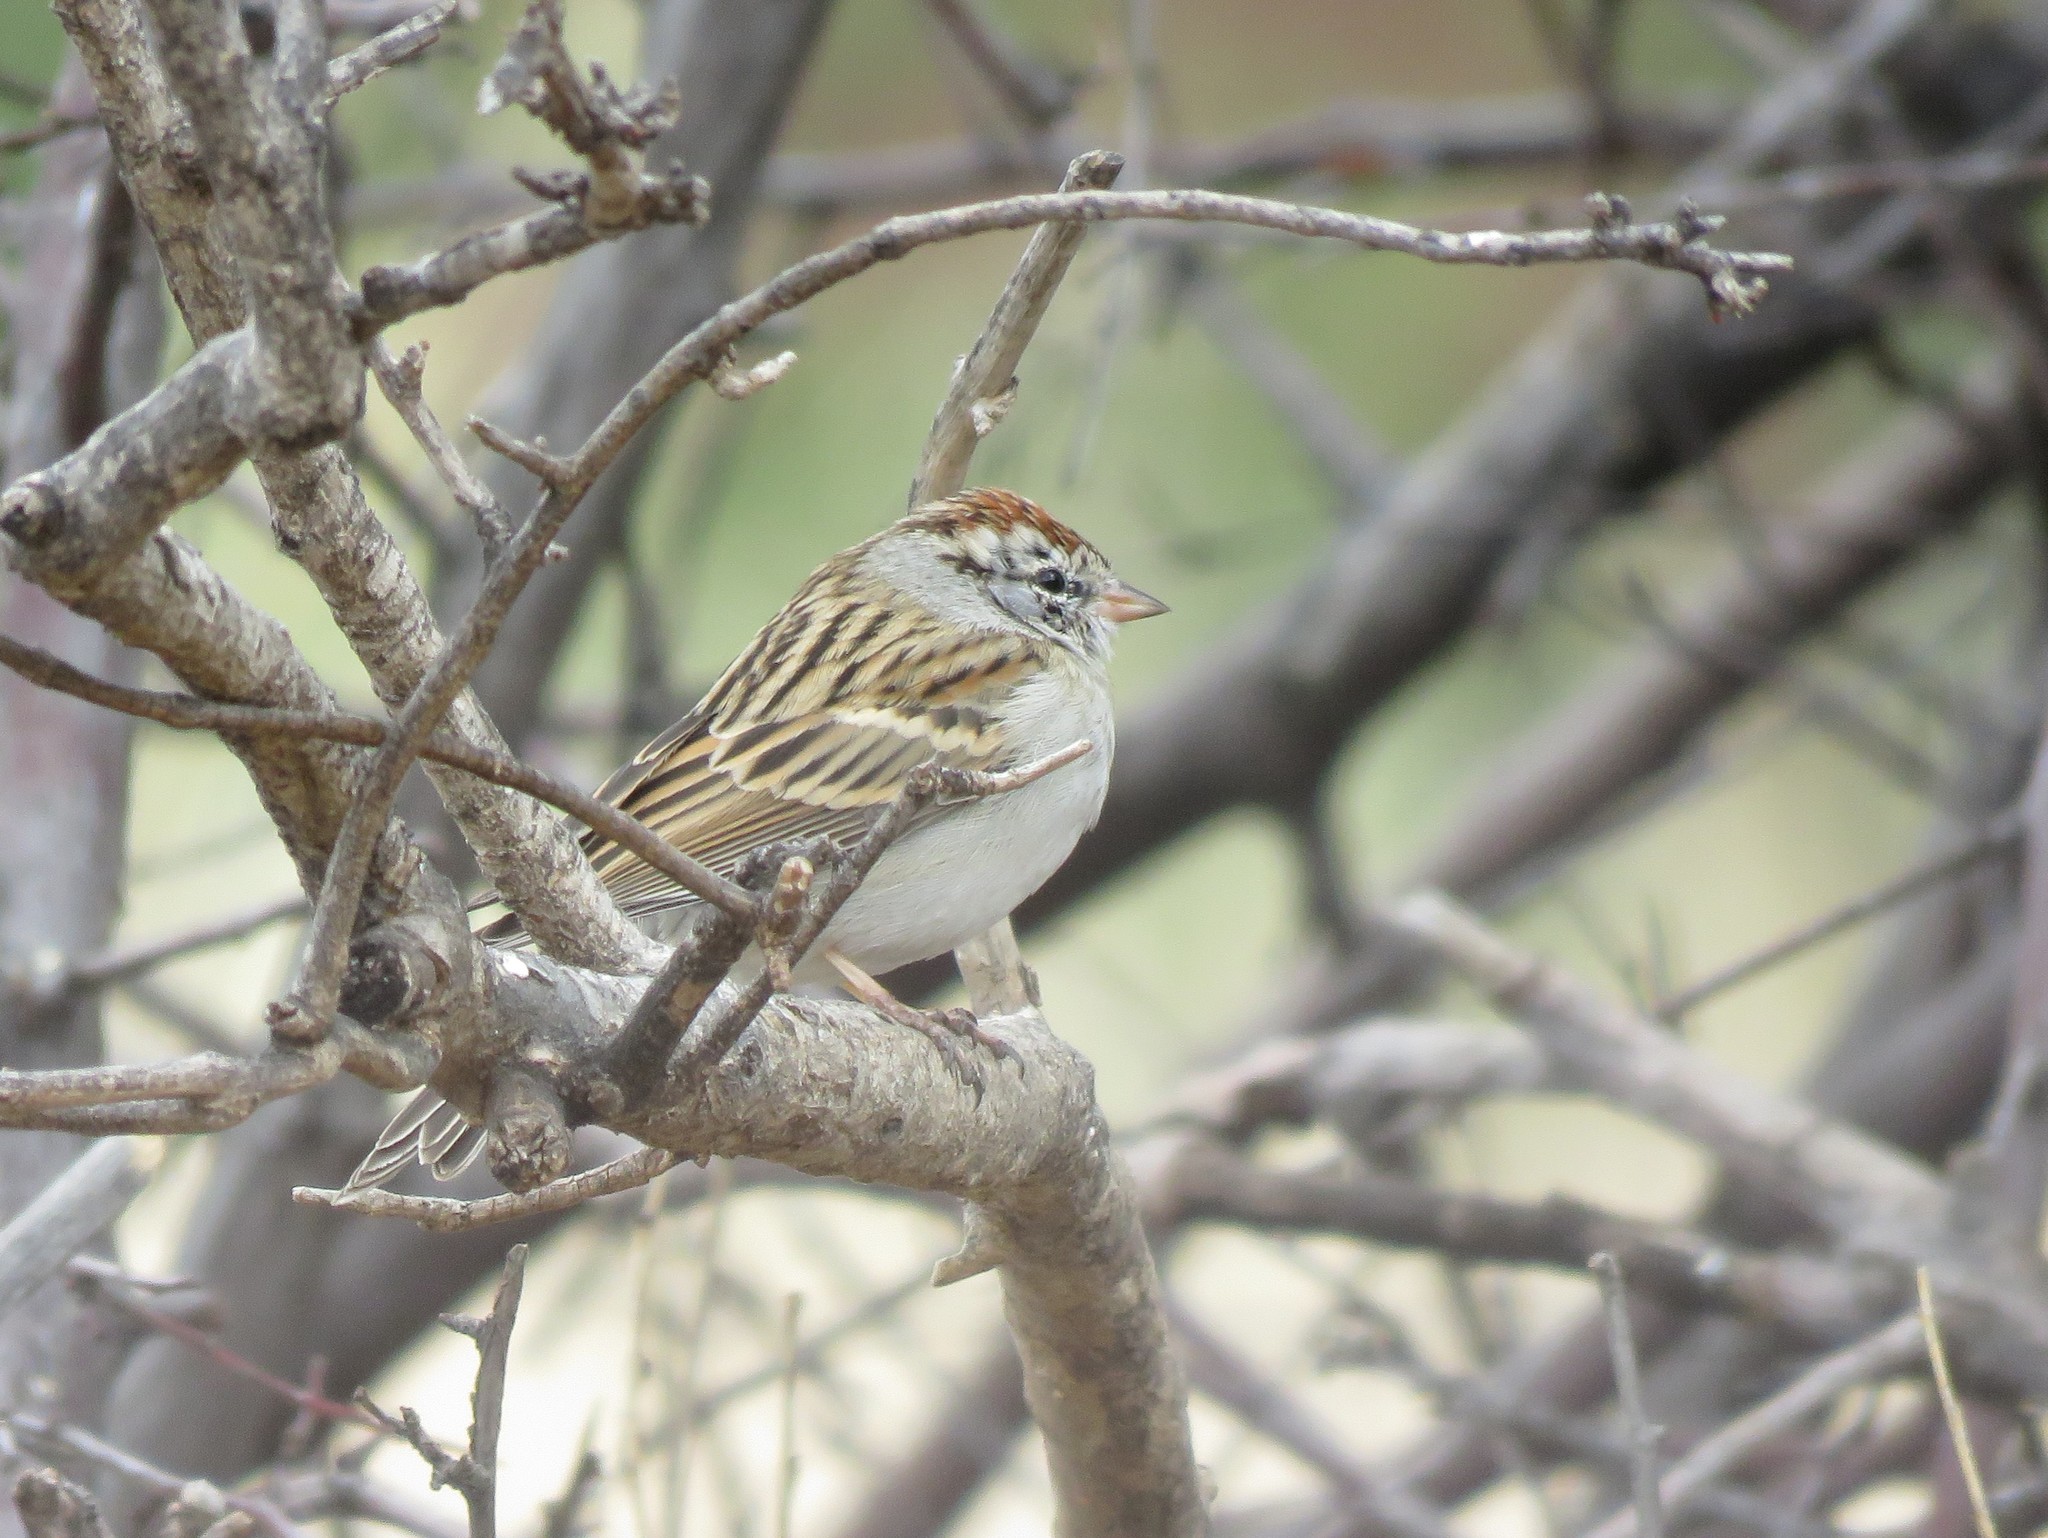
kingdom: Animalia
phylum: Chordata
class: Aves
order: Passeriformes
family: Passerellidae
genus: Spizella
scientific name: Spizella passerina
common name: Chipping sparrow
